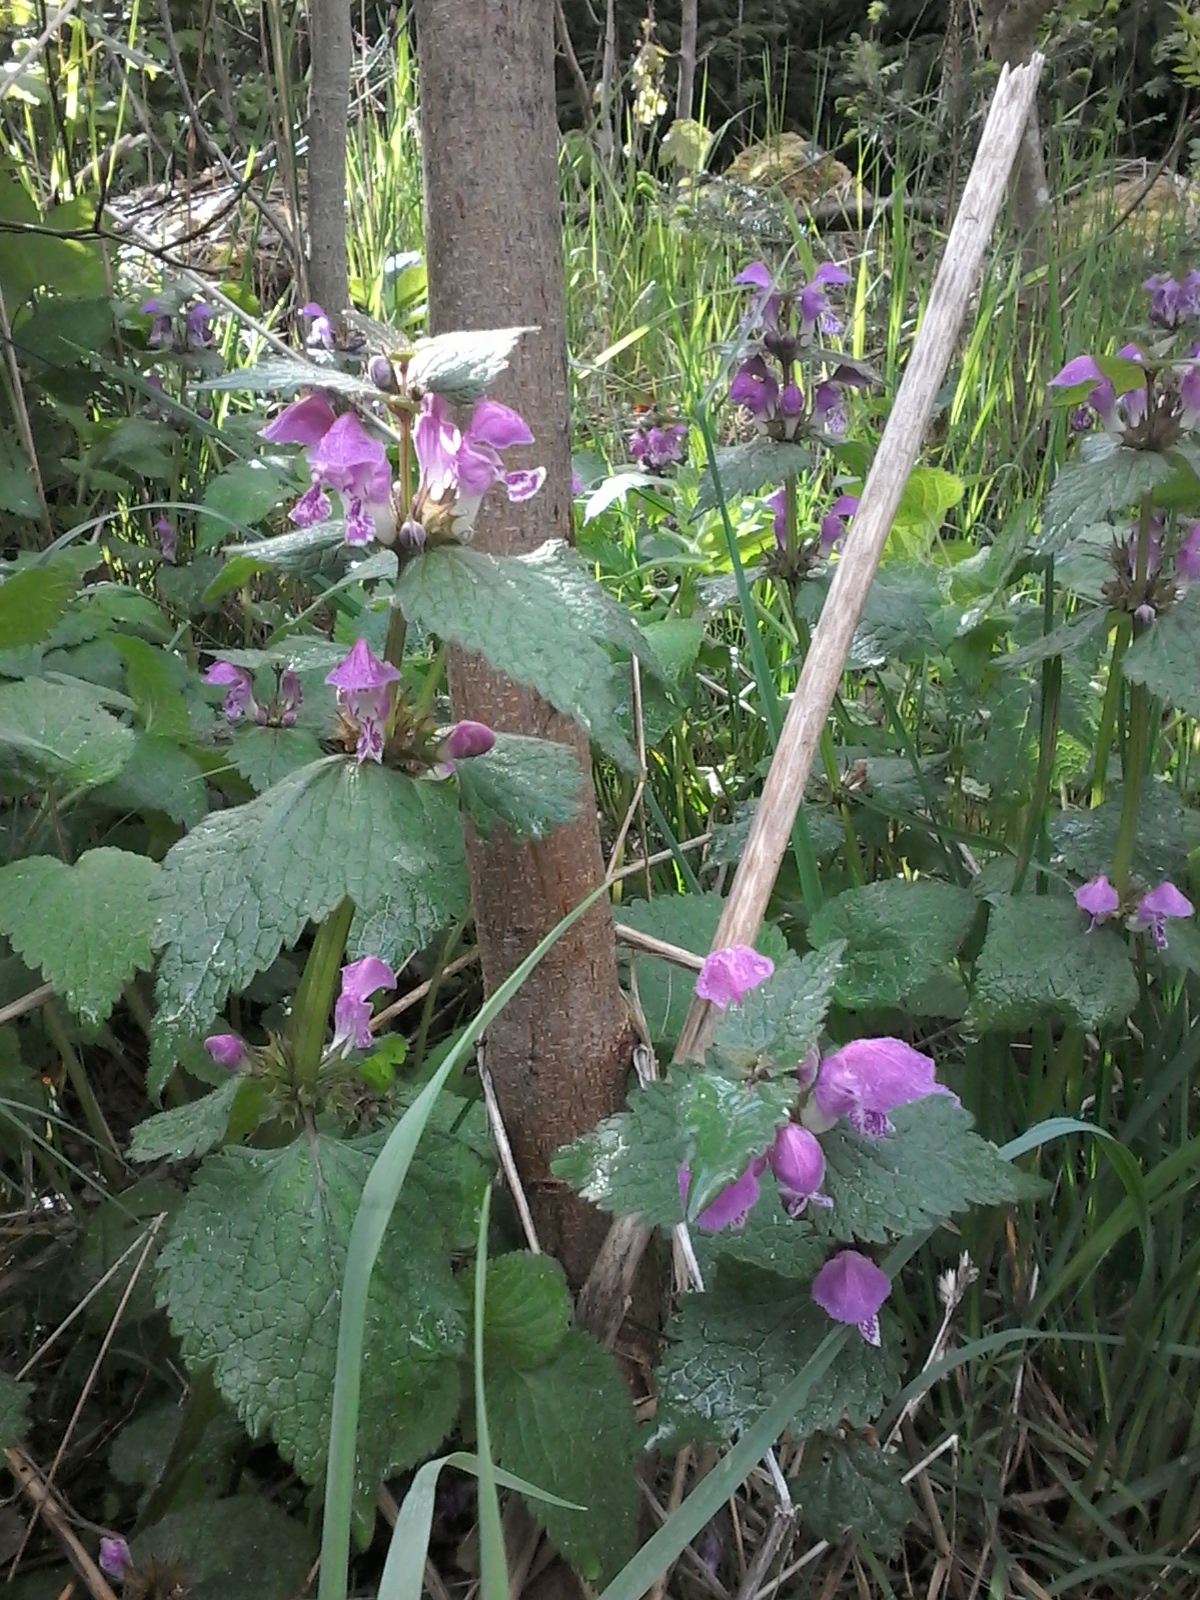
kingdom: Plantae
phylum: Tracheophyta
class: Magnoliopsida
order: Lamiales
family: Lamiaceae
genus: Lamium
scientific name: Lamium maculatum
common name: Spotted dead-nettle
